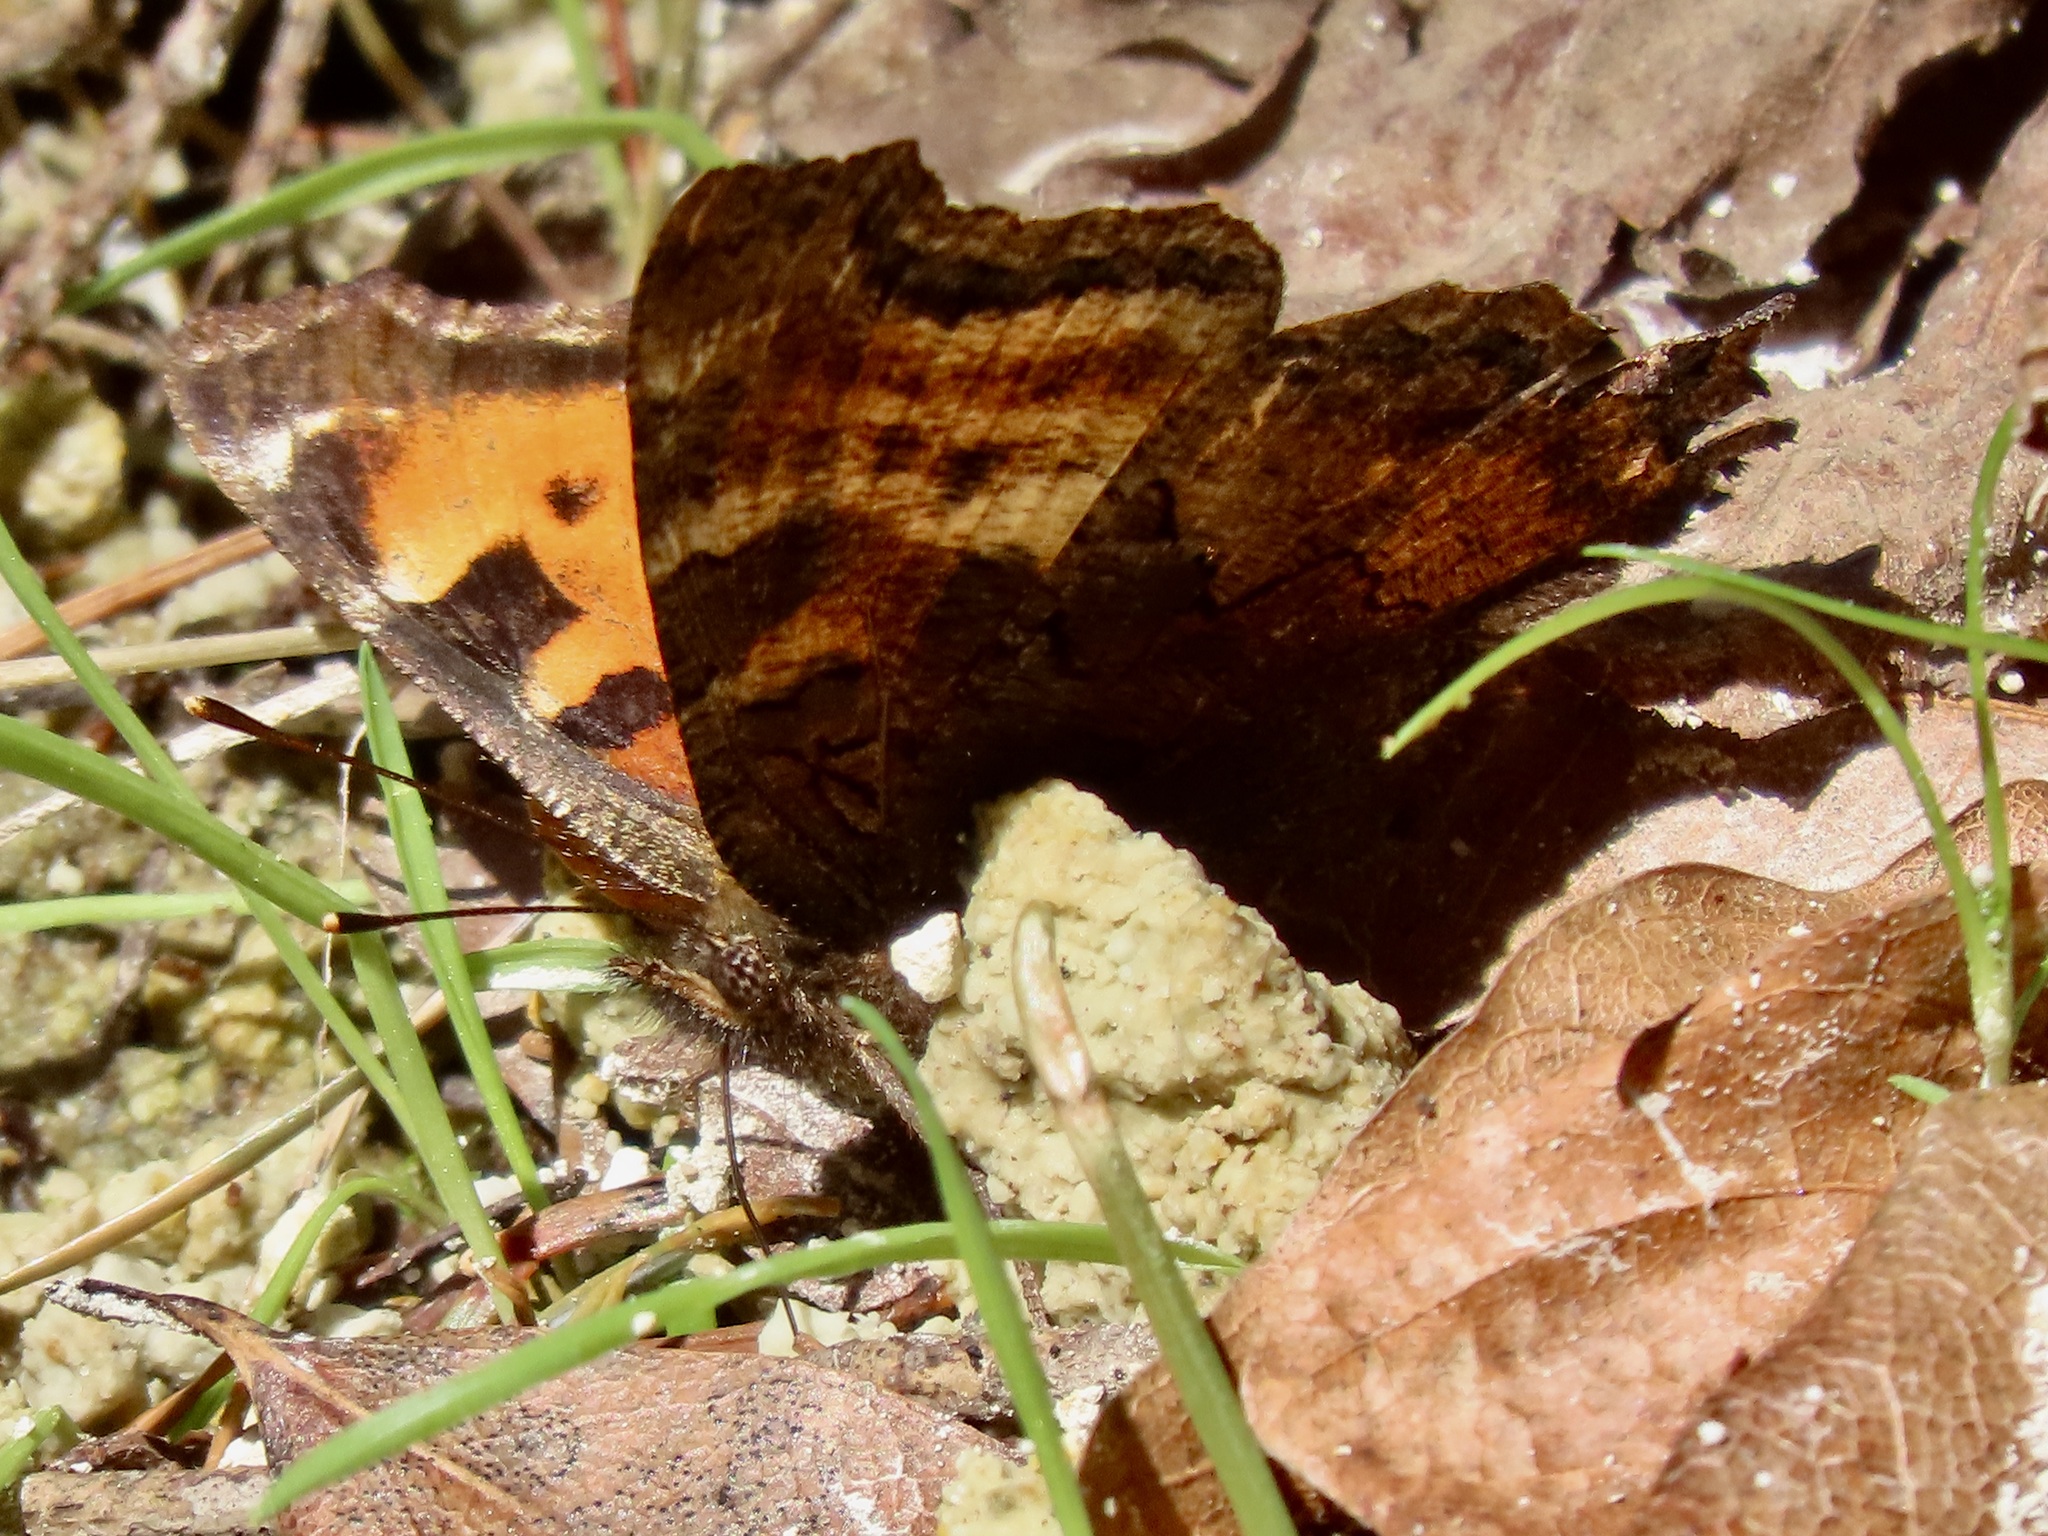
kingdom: Animalia
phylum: Arthropoda
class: Insecta
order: Lepidoptera
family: Nymphalidae
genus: Nymphalis
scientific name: Nymphalis californica
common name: California tortoiseshell
